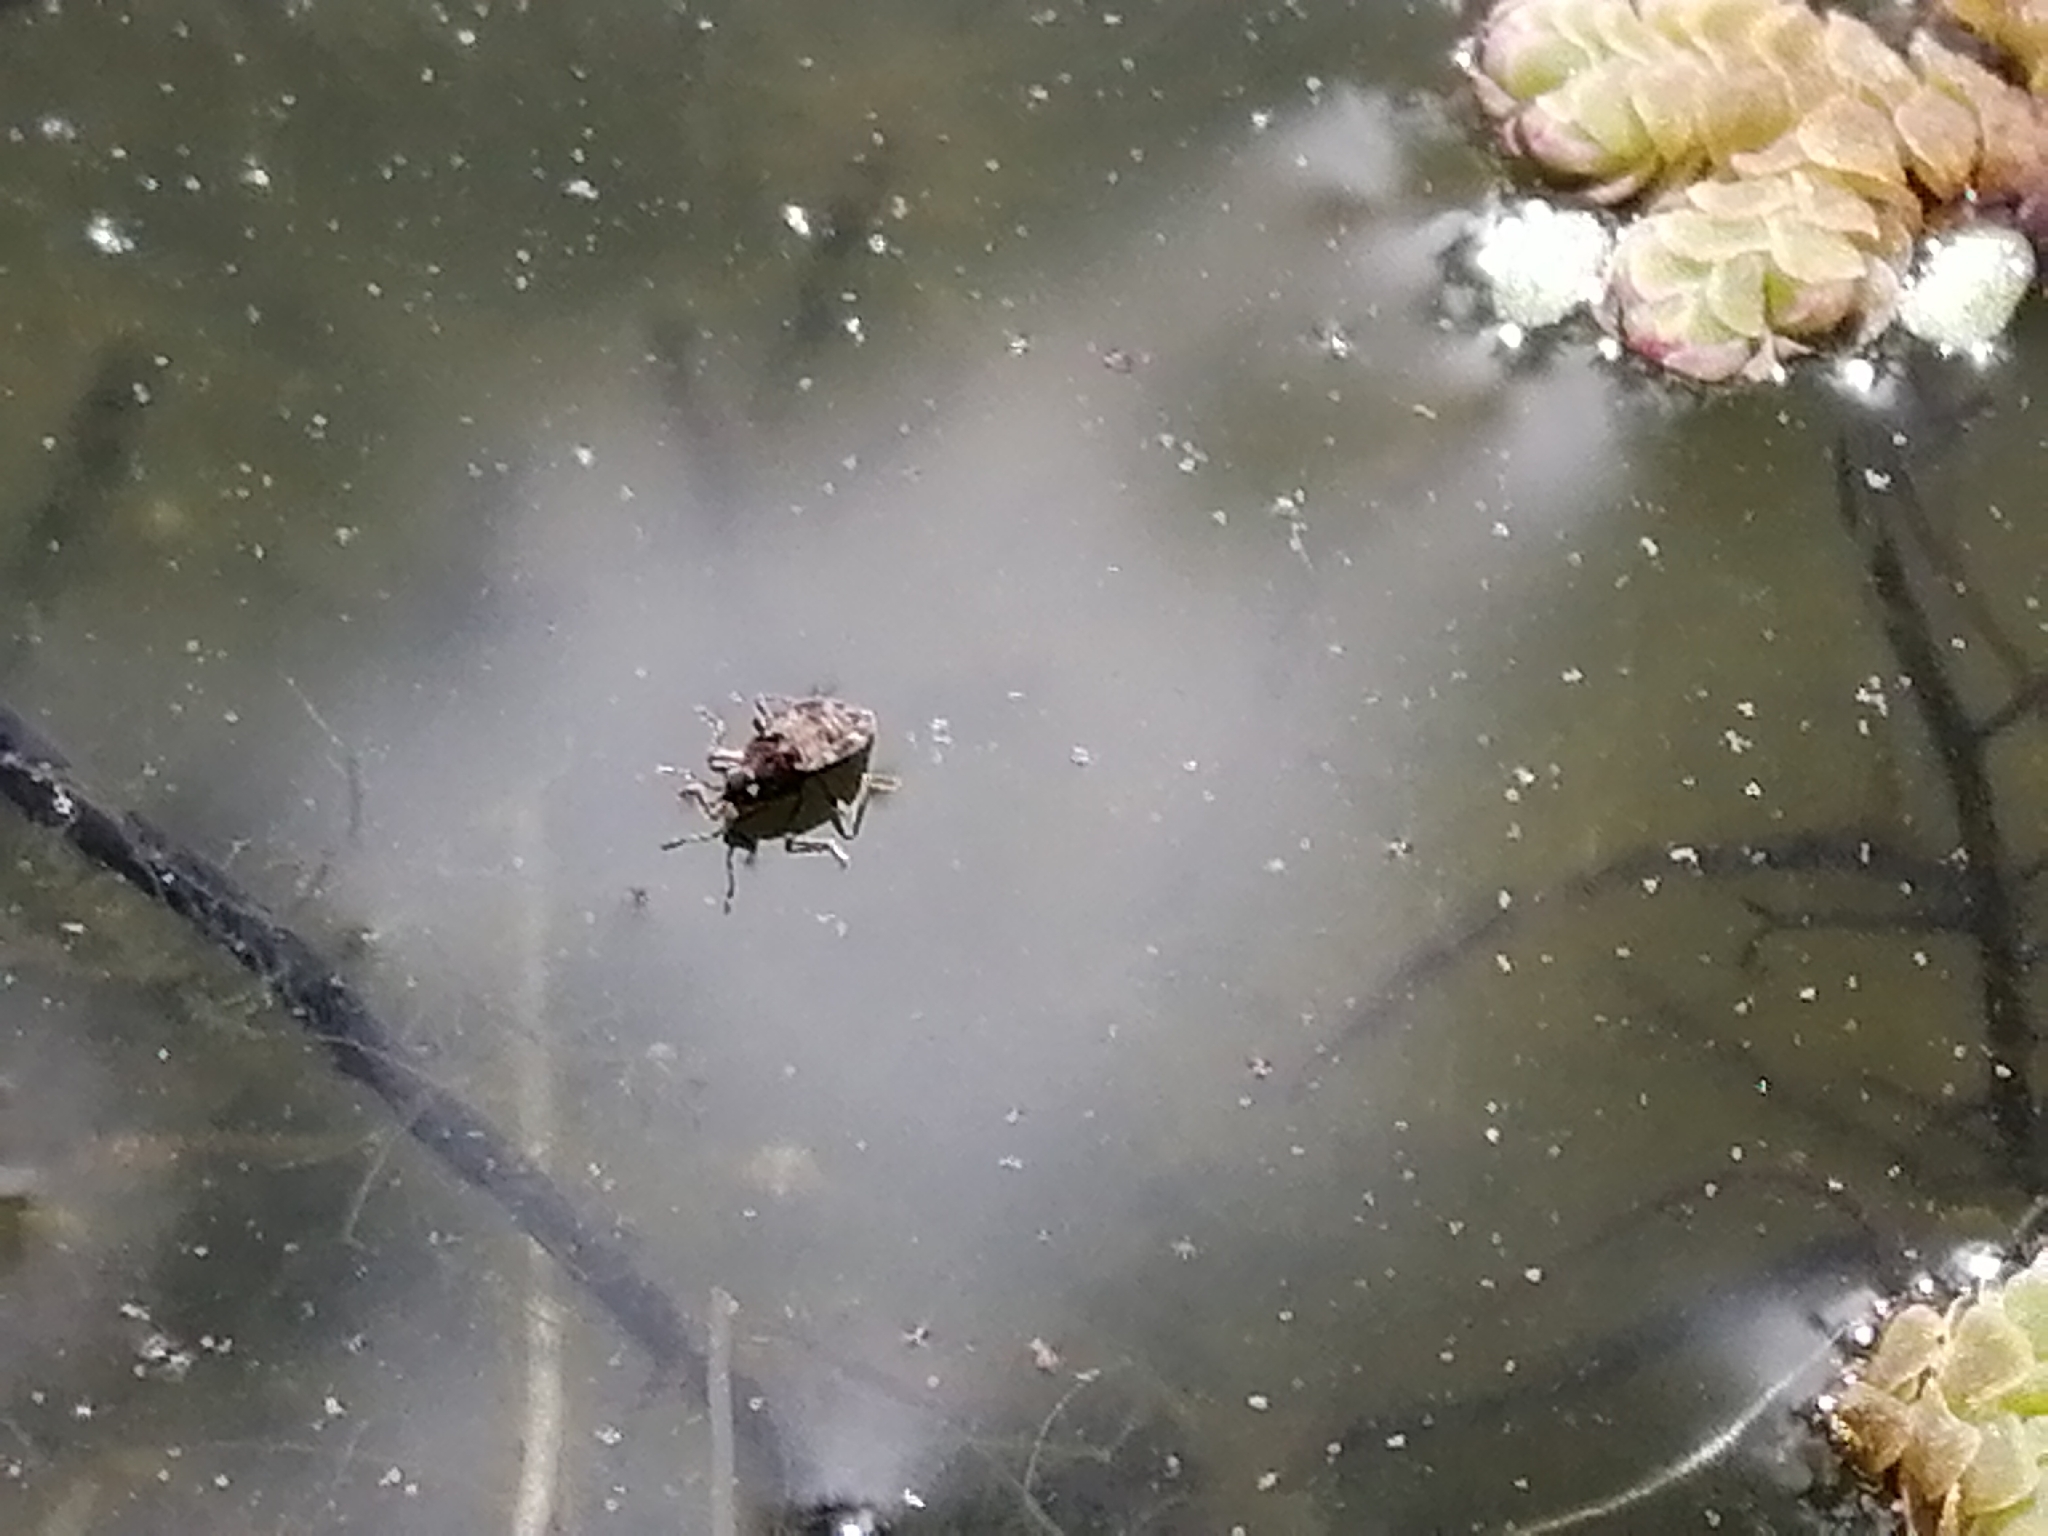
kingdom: Animalia
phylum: Arthropoda
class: Insecta
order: Hemiptera
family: Veliidae
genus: Microvelia
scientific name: Microvelia macgregori
